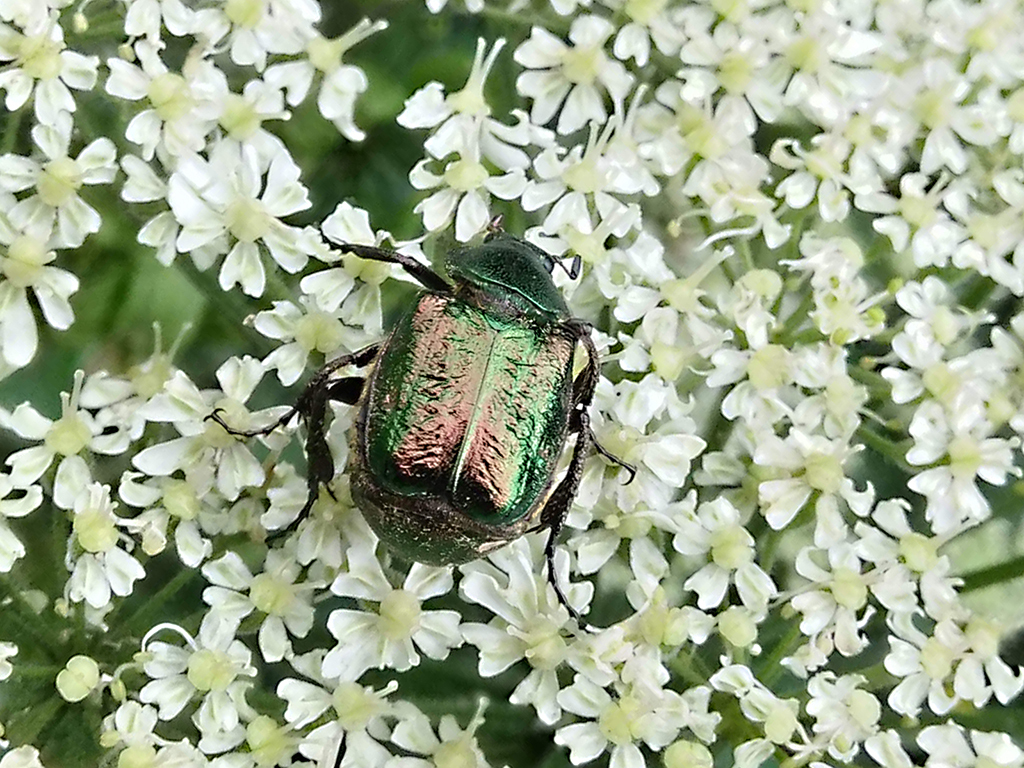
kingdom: Animalia
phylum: Arthropoda
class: Insecta
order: Coleoptera
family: Scarabaeidae
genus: Gnorimus
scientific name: Gnorimus nobilis
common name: Noble chafer
